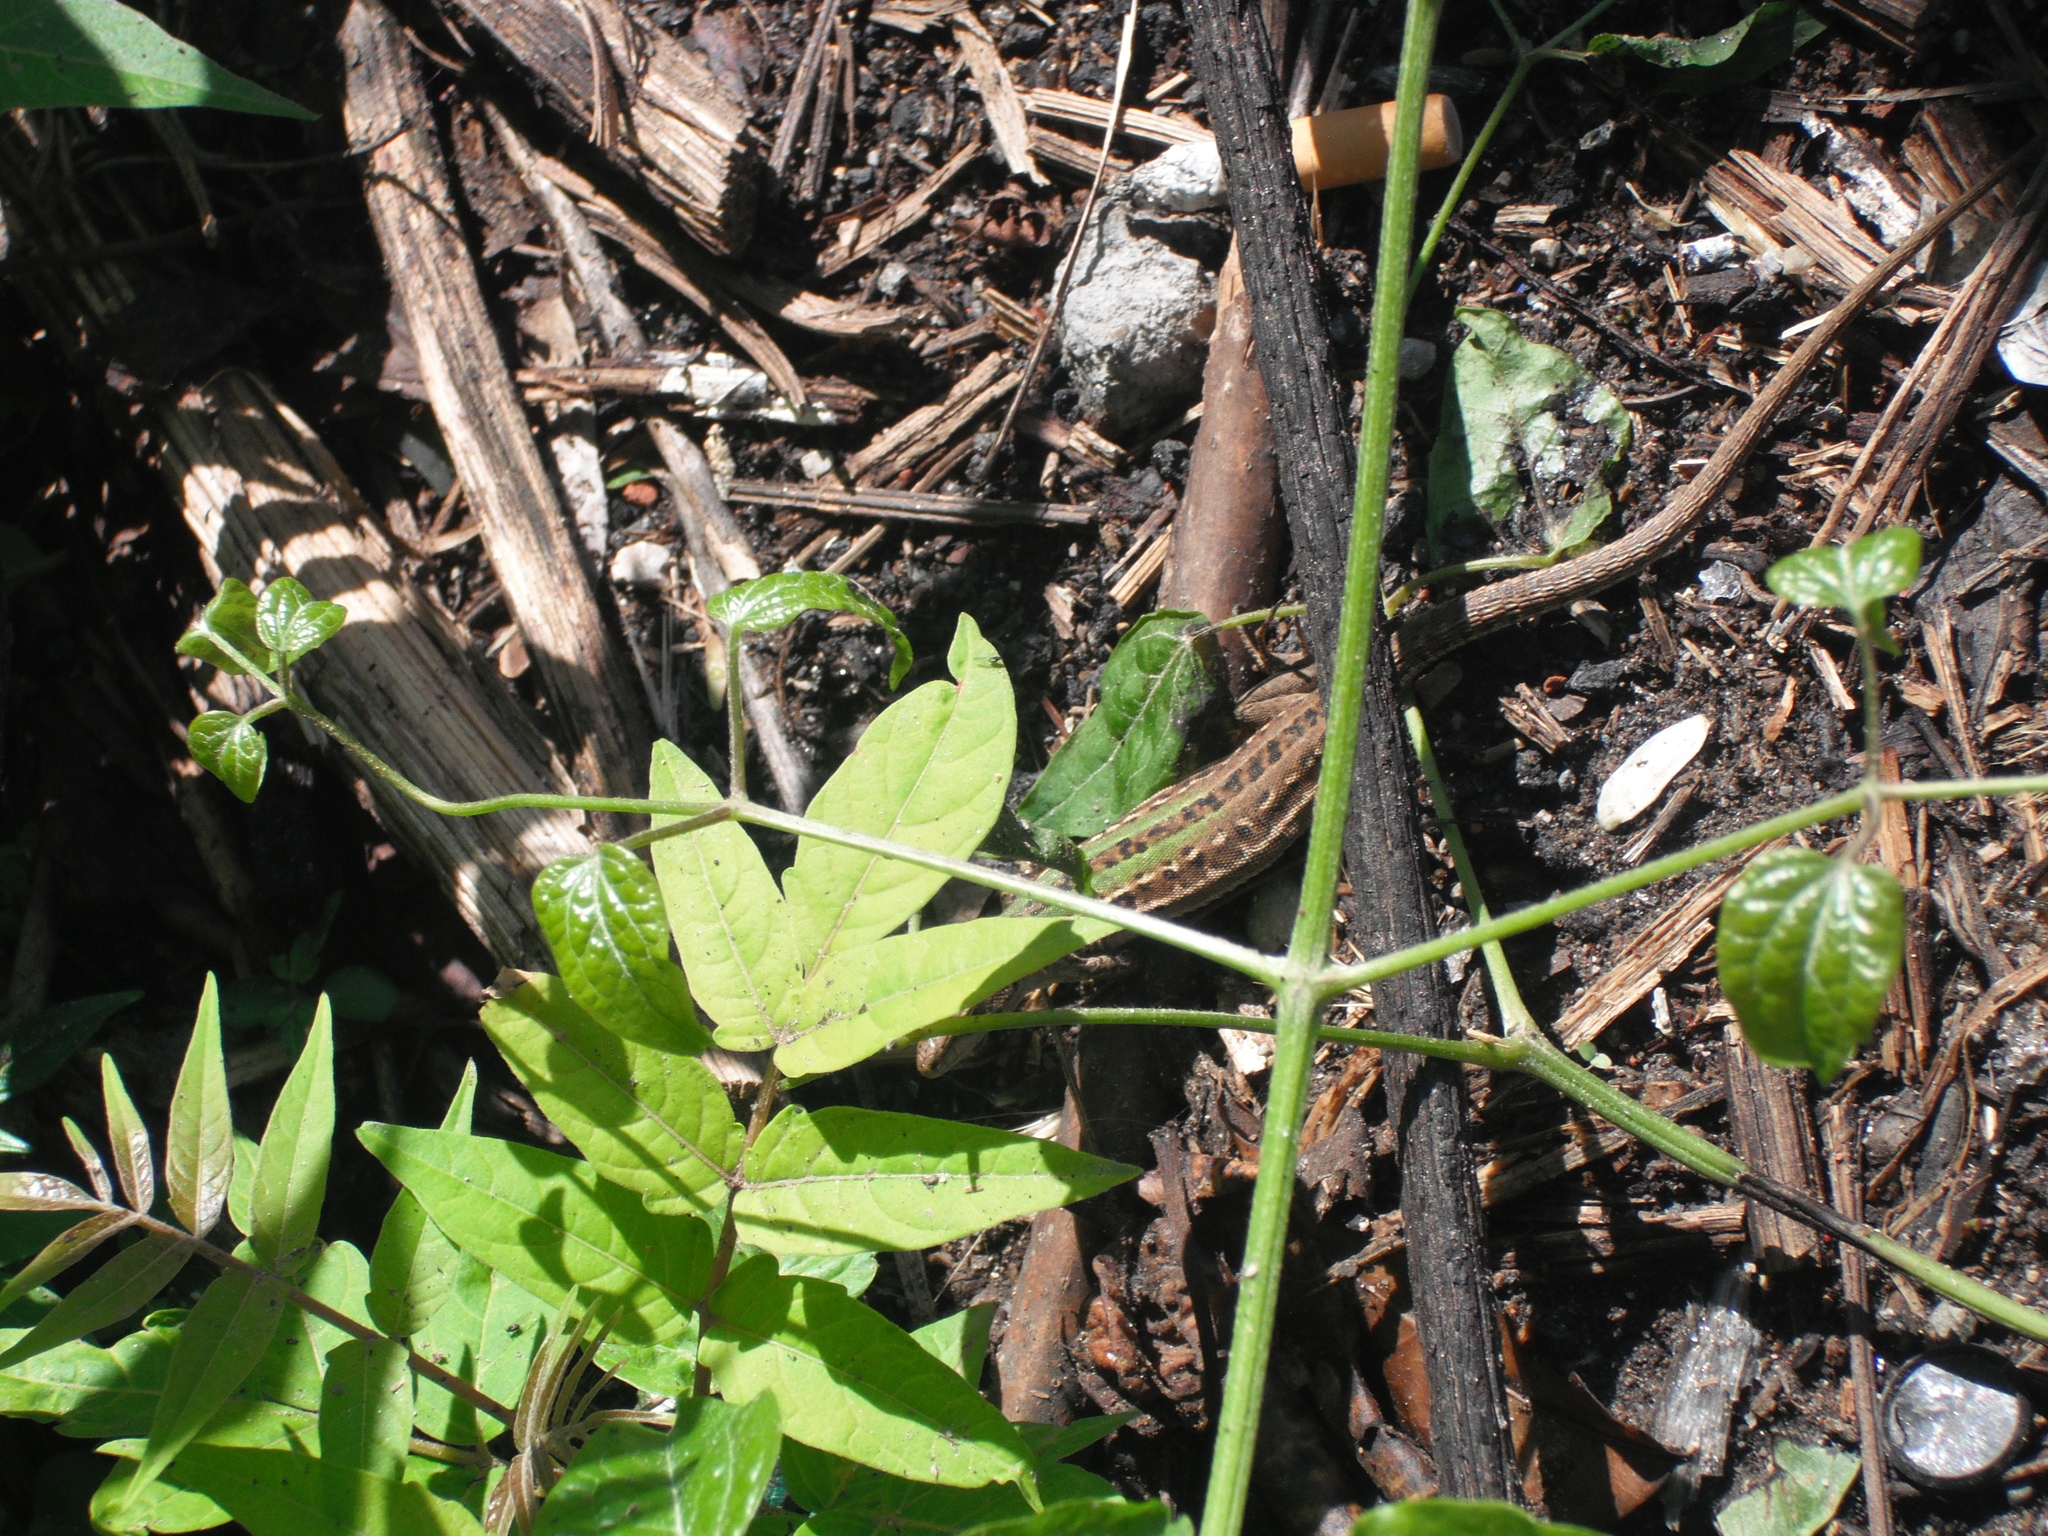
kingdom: Animalia
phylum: Chordata
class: Squamata
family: Lacertidae
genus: Podarcis
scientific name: Podarcis siculus
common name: Italian wall lizard
